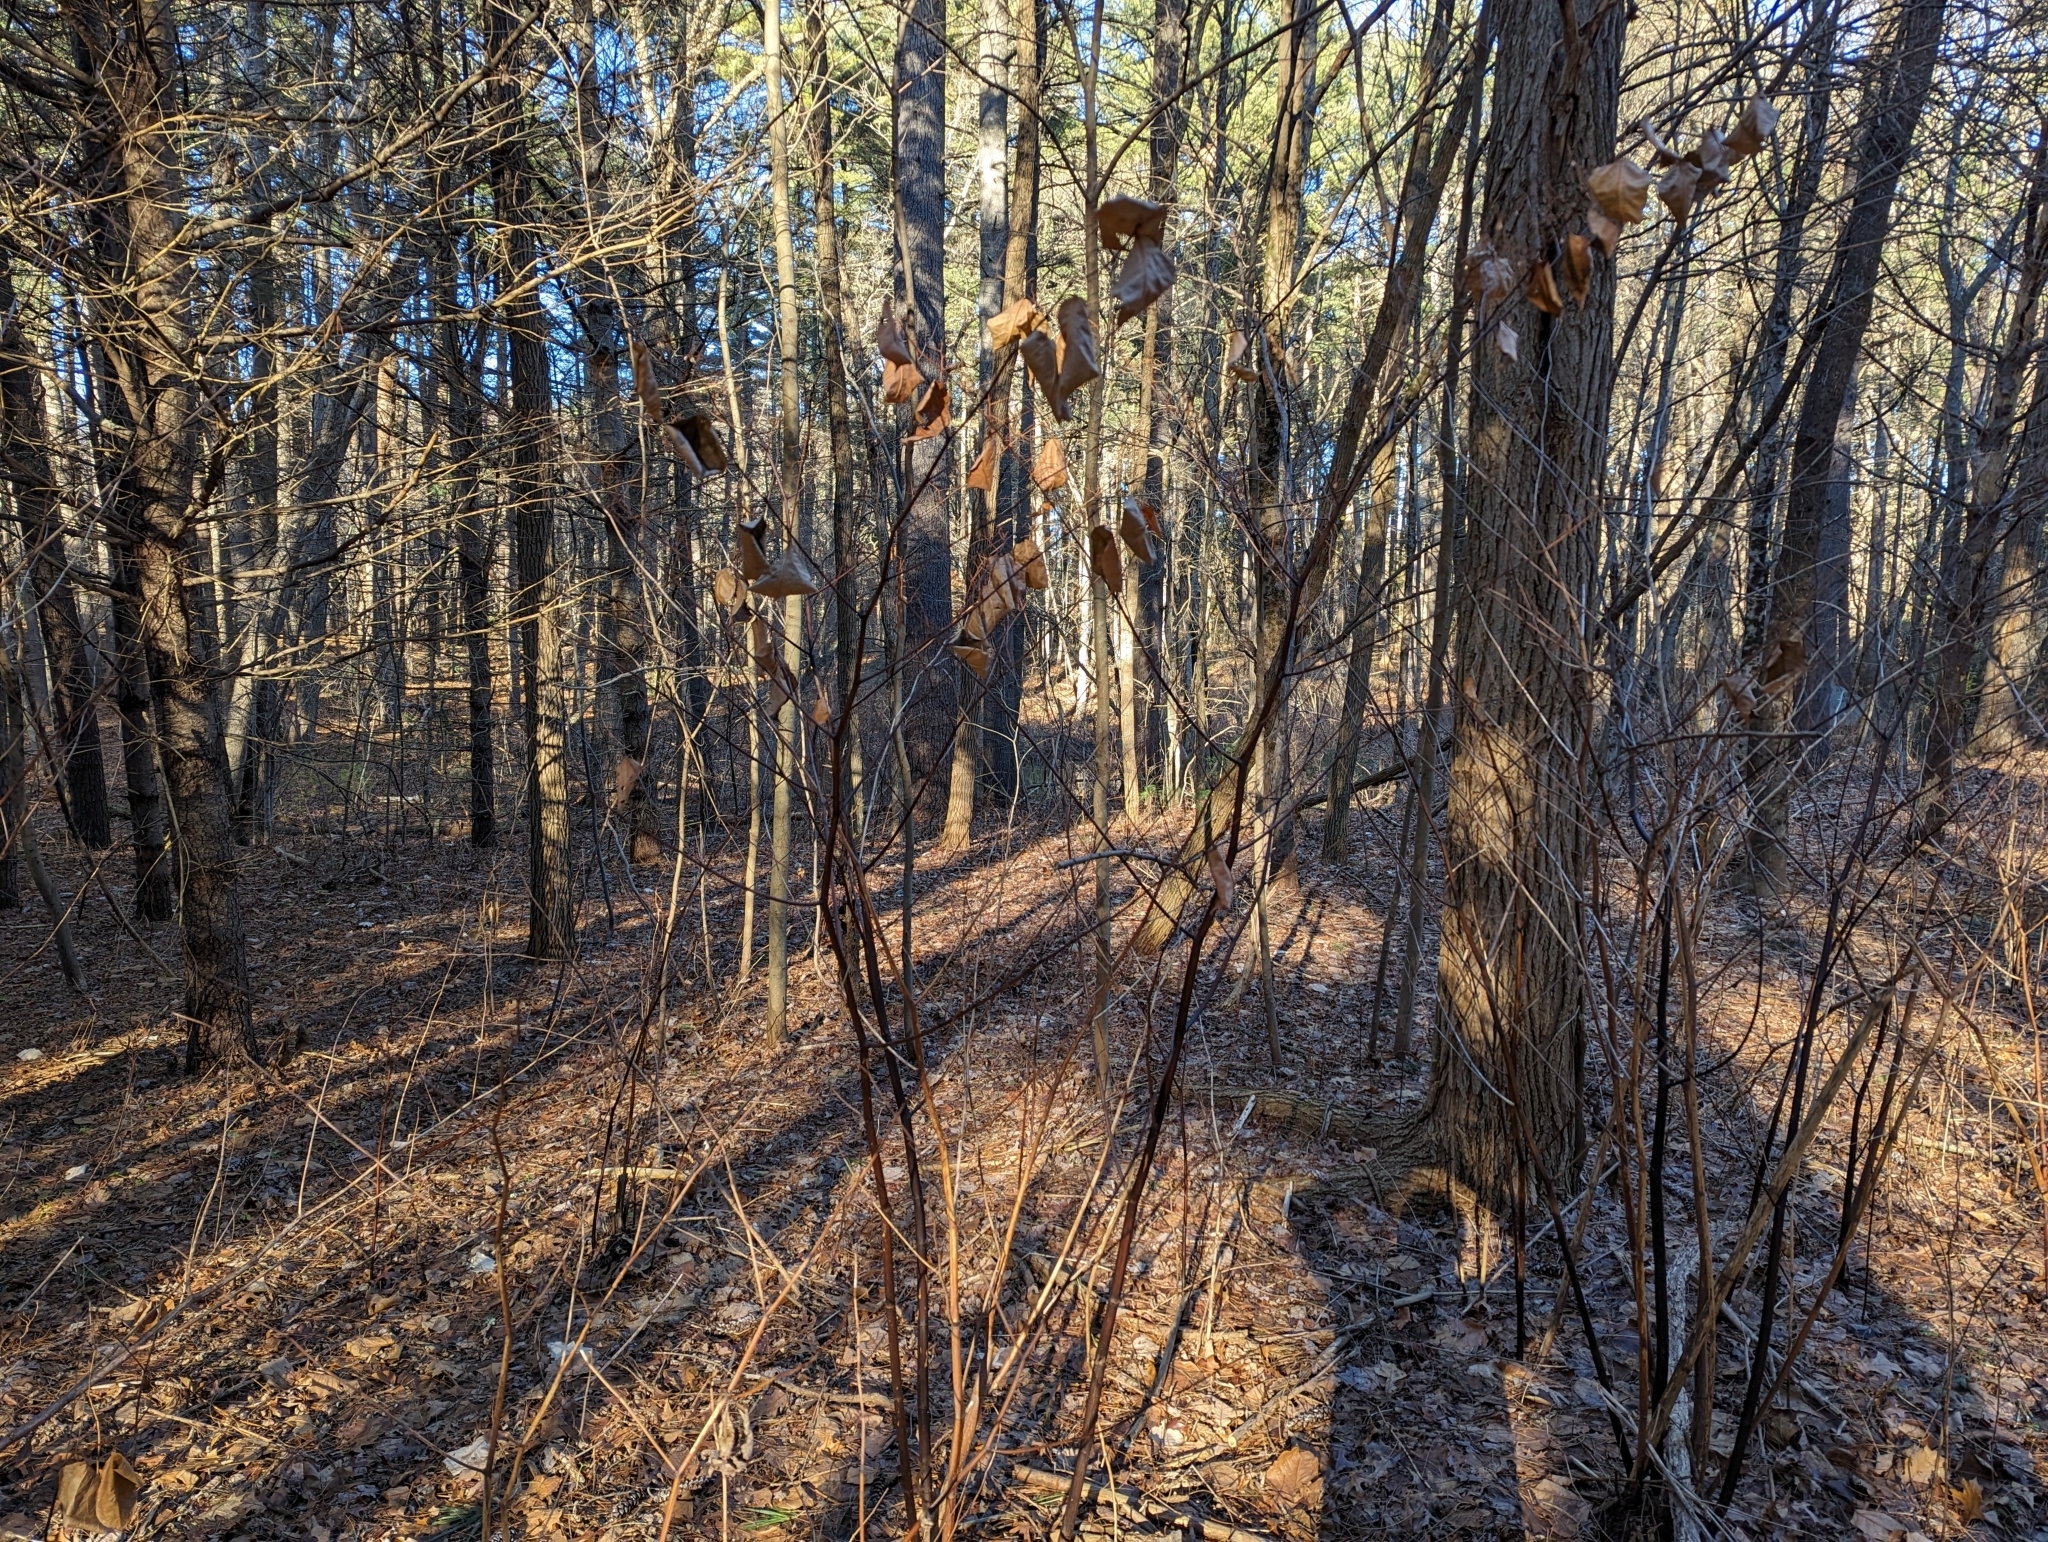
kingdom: Plantae
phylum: Tracheophyta
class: Magnoliopsida
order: Caryophyllales
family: Polygonaceae
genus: Reynoutria
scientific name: Reynoutria japonica
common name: Japanese knotweed
